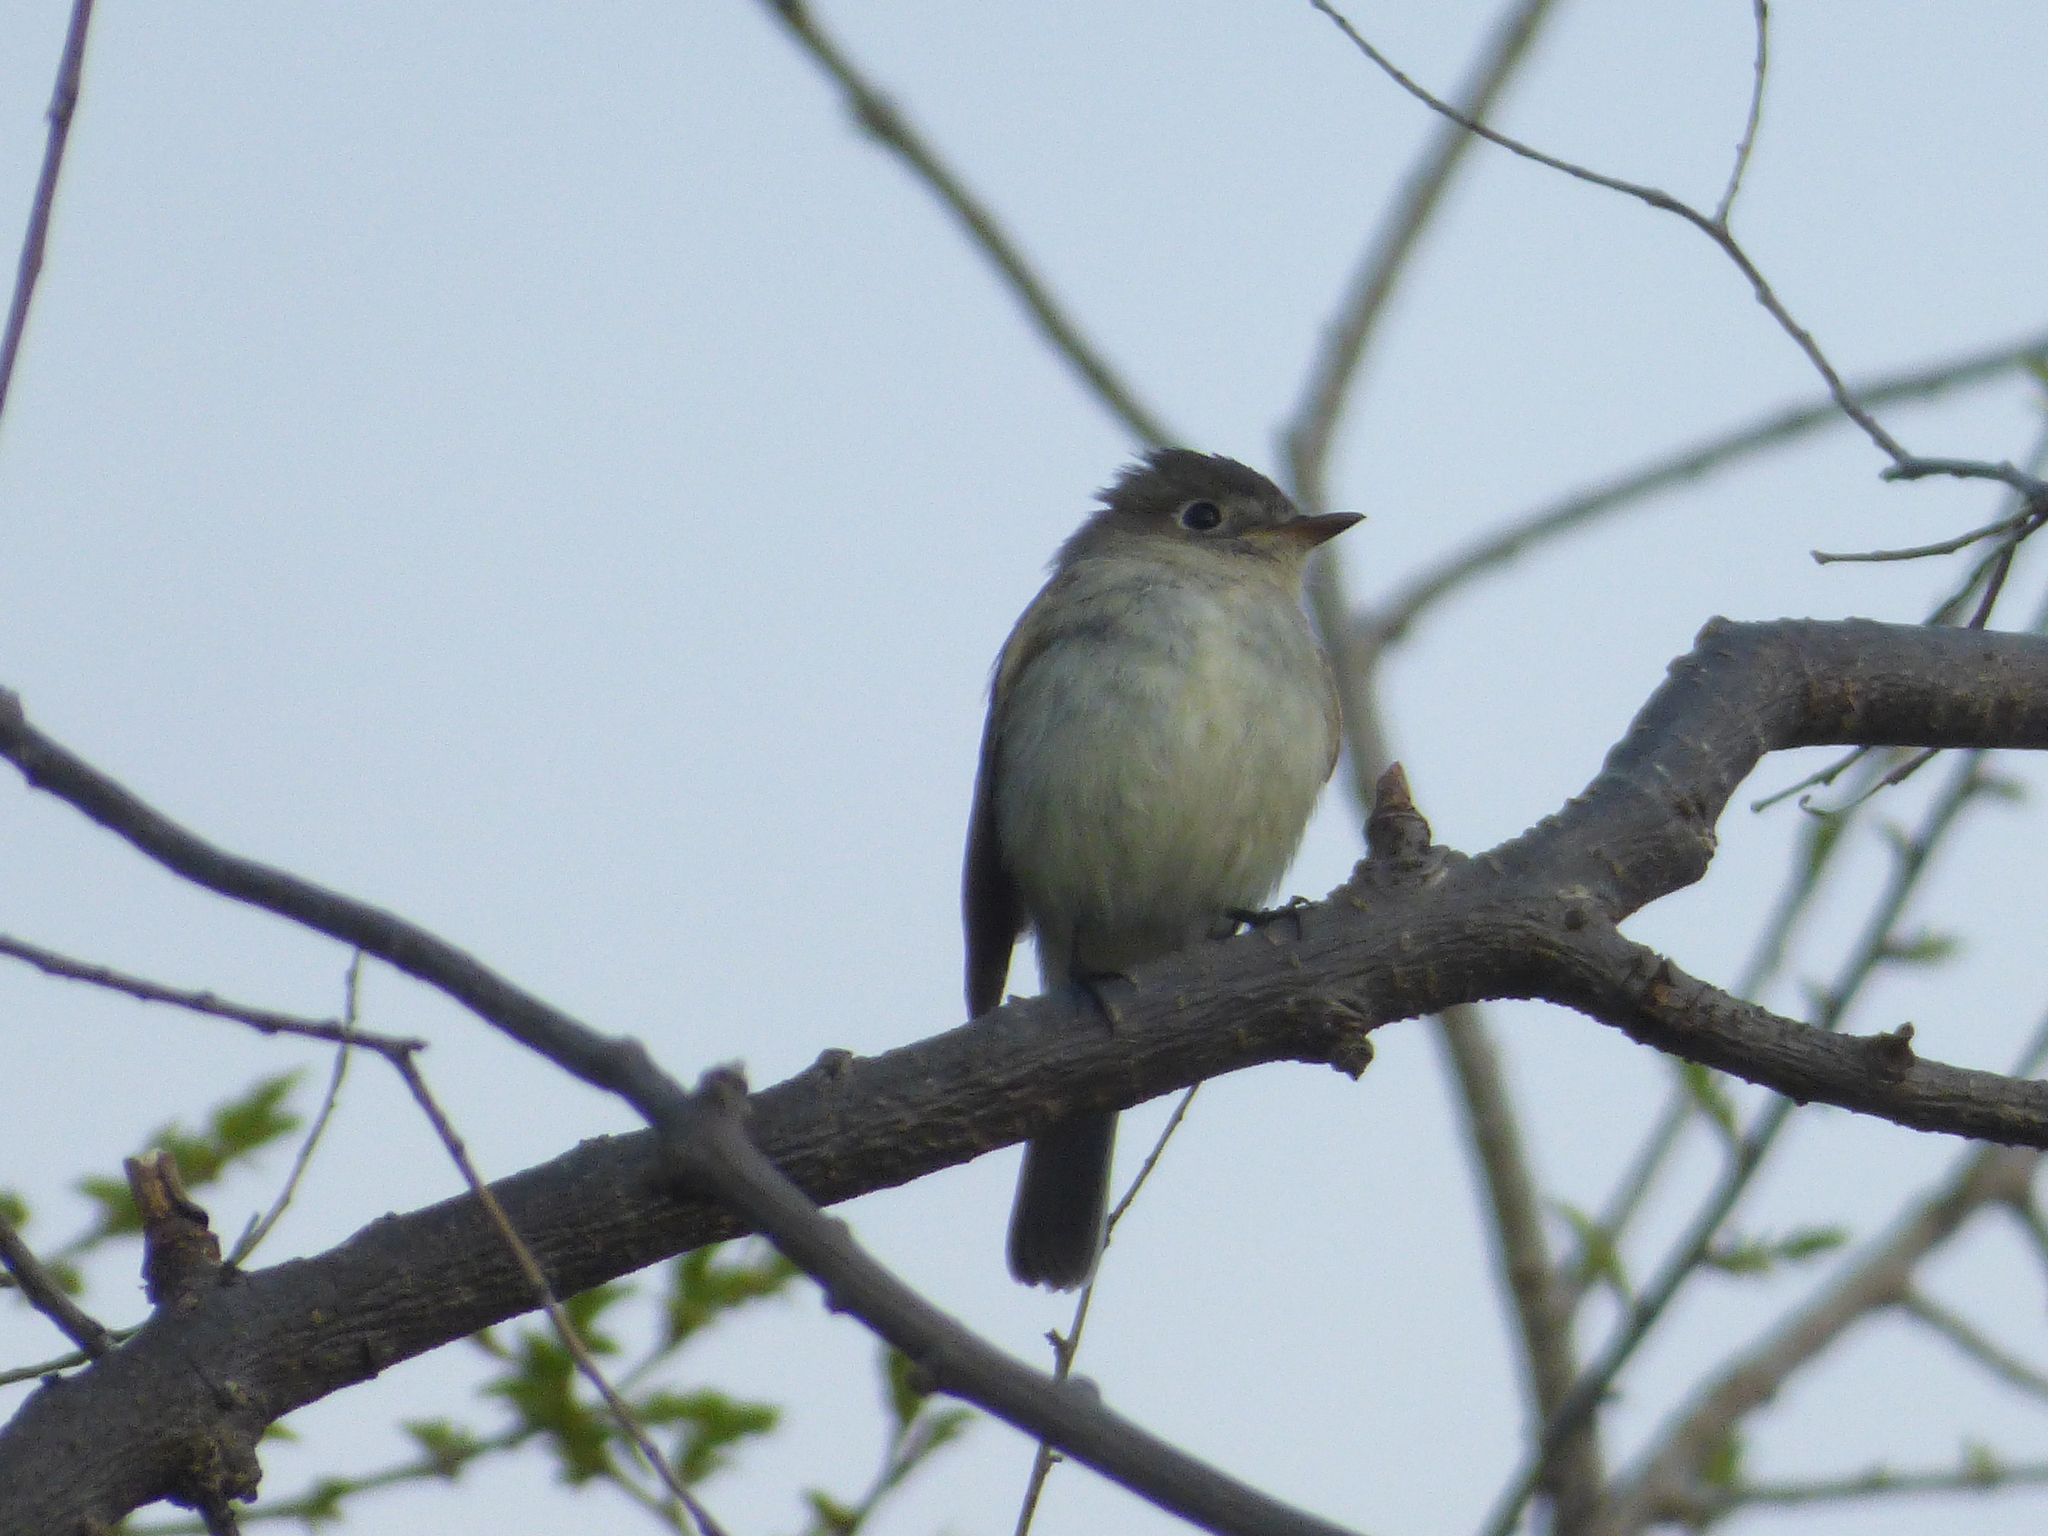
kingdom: Animalia
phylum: Chordata
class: Aves
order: Passeriformes
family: Tyrannidae
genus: Empidonax
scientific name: Empidonax minimus
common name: Least flycatcher
